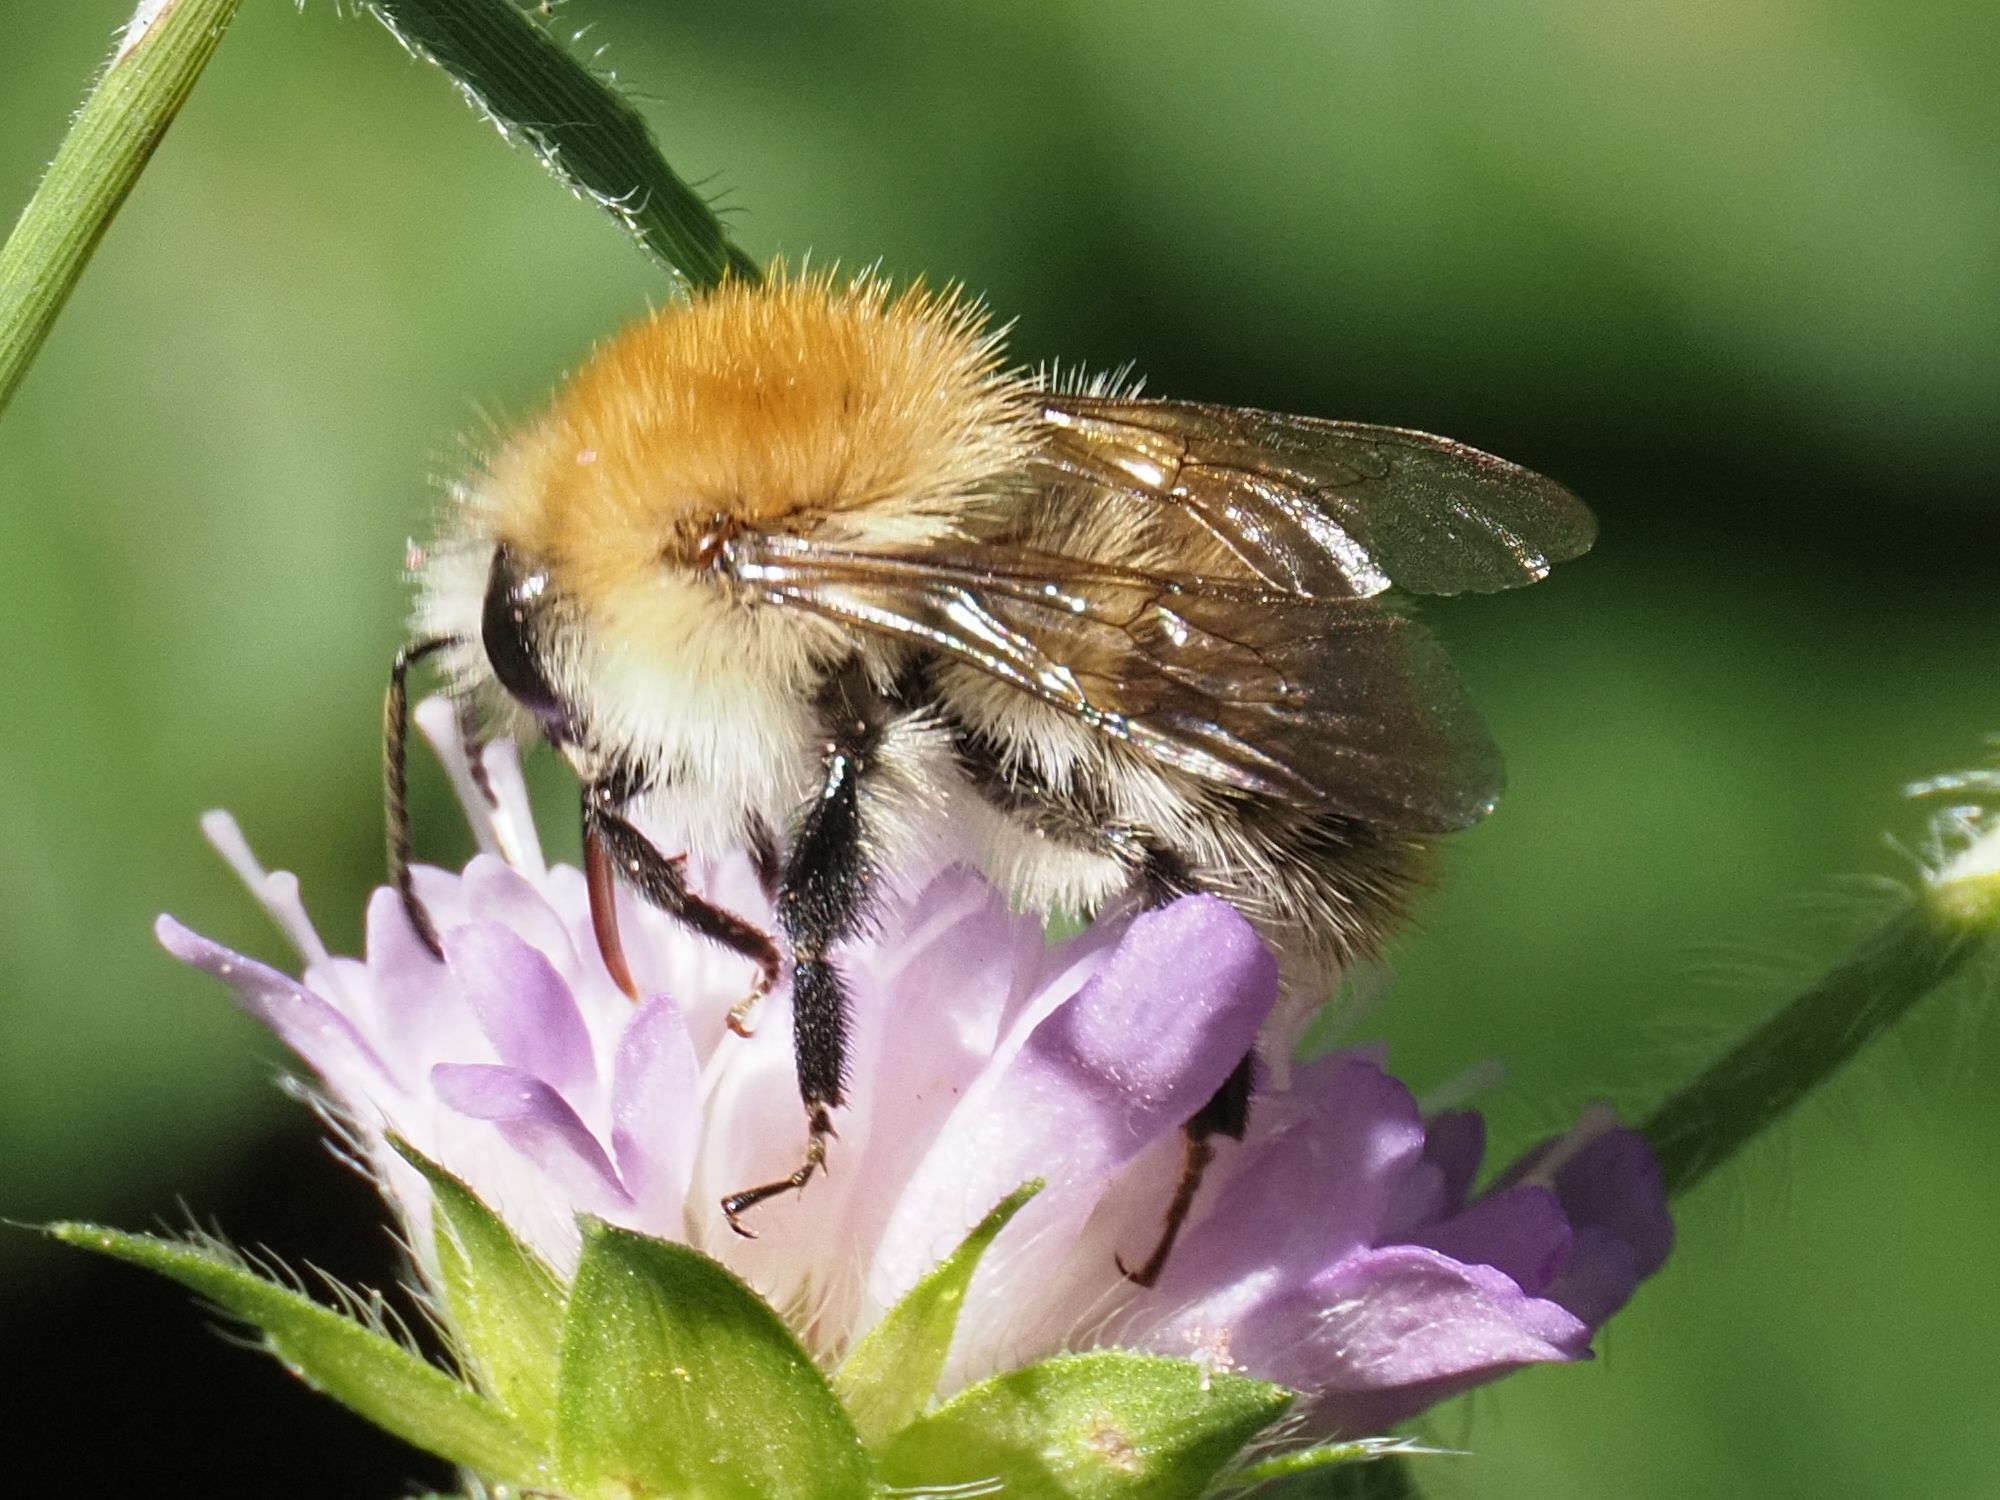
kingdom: Animalia
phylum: Arthropoda
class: Insecta
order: Hymenoptera
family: Apidae
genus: Bombus
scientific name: Bombus pascuorum
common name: Common carder bee
